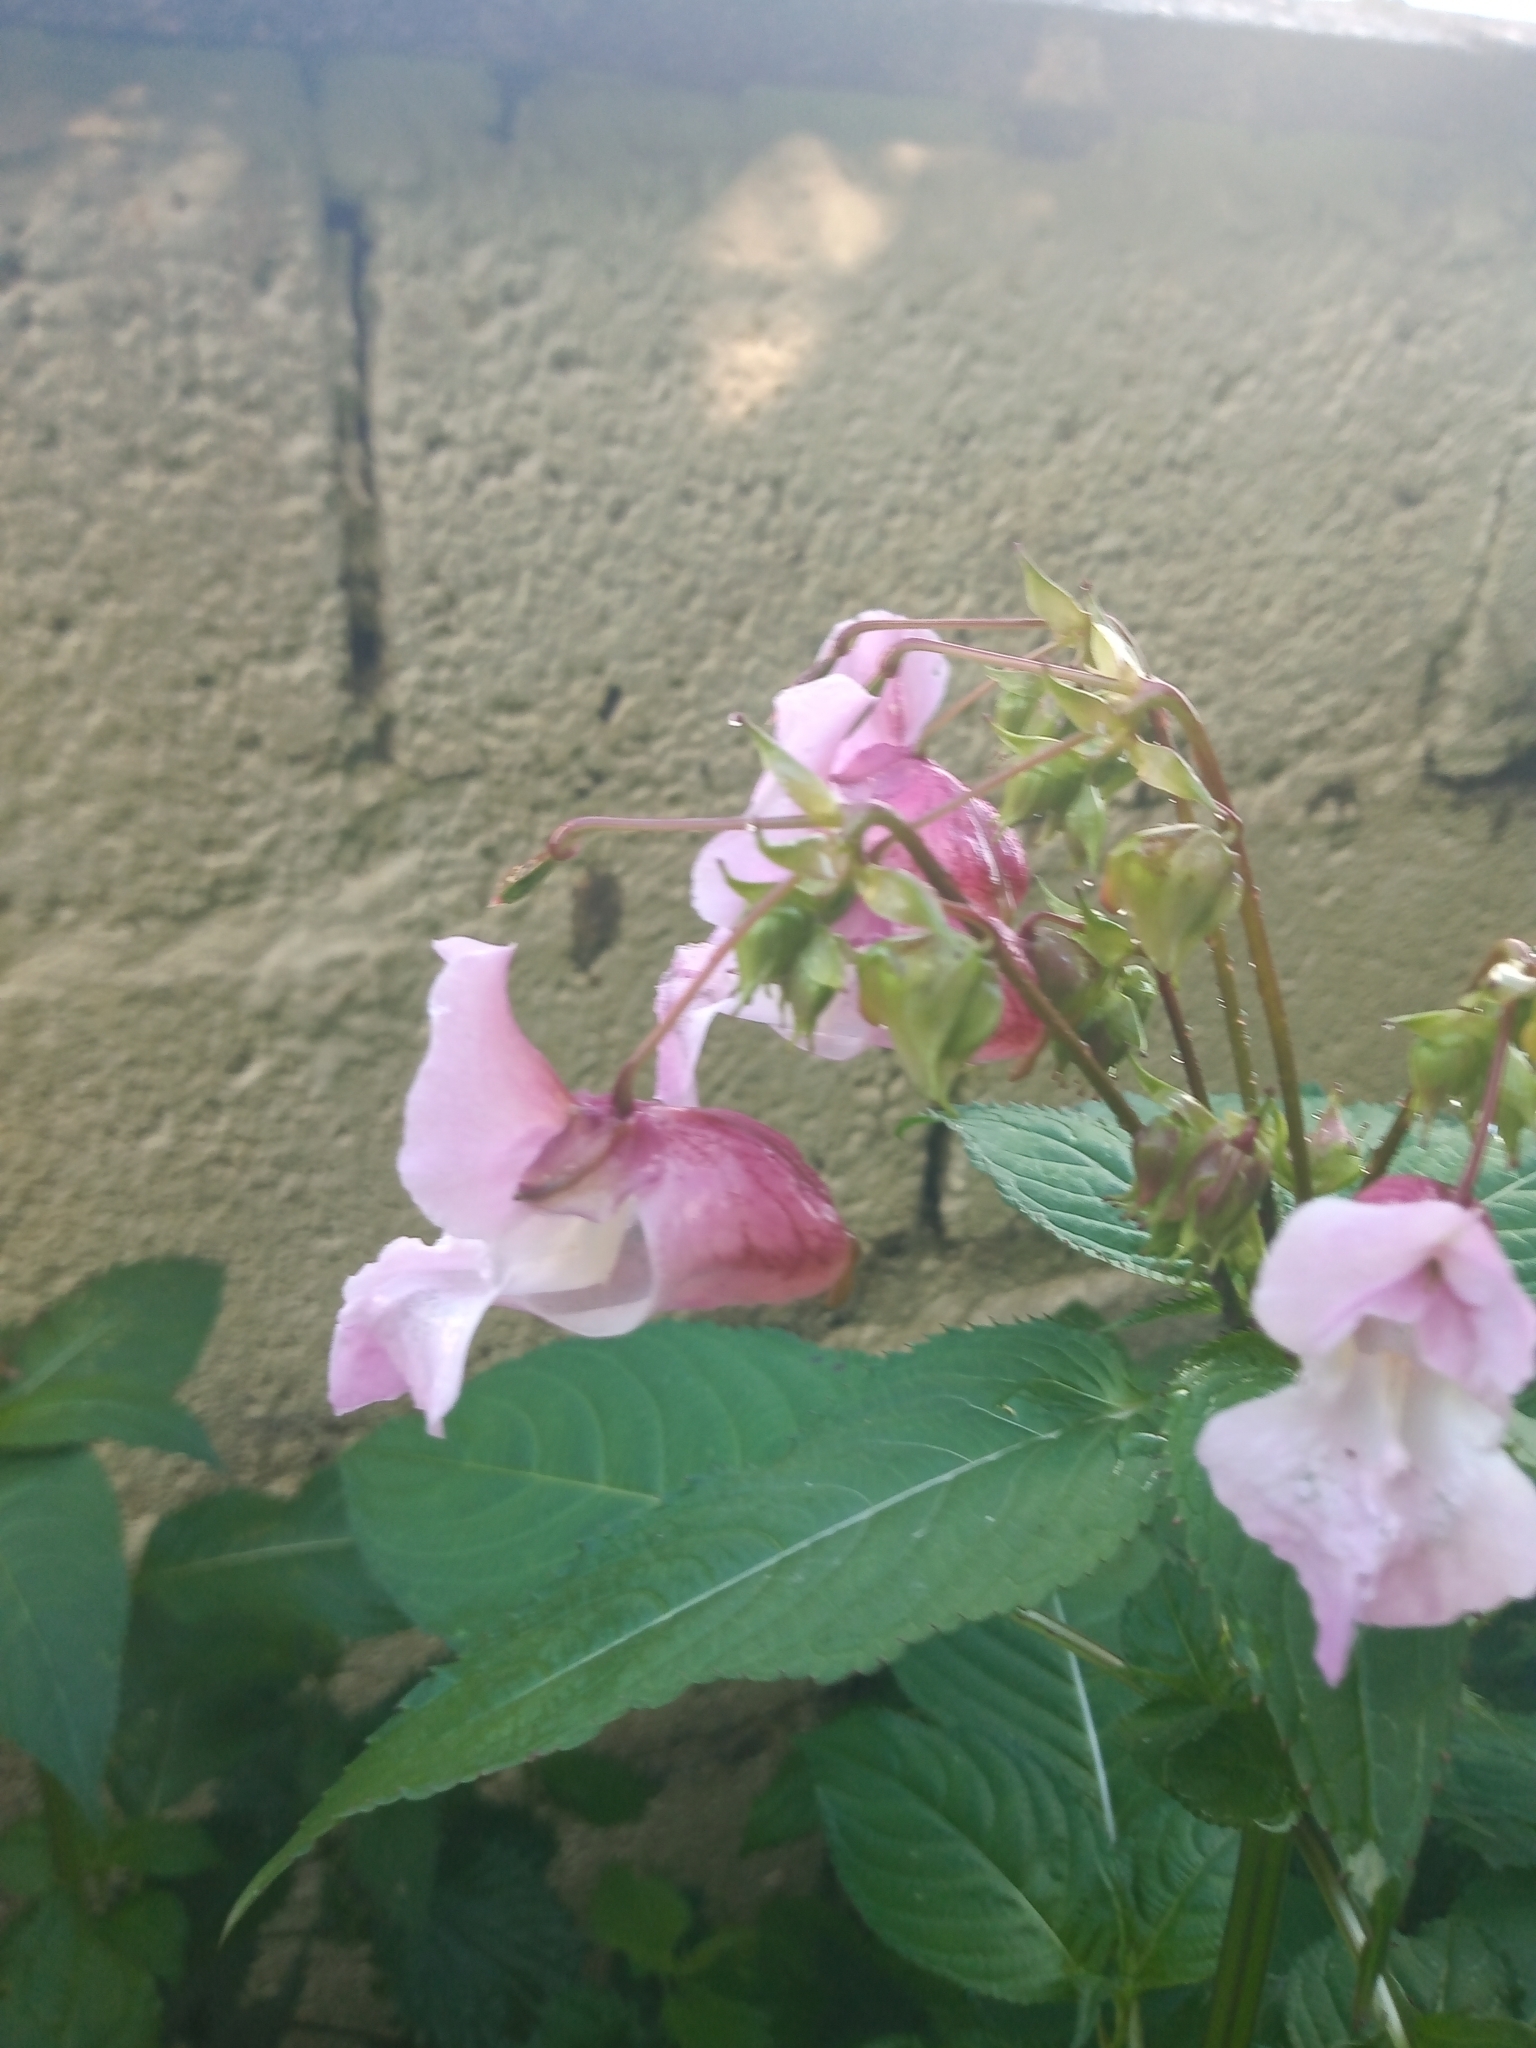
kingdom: Plantae
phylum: Tracheophyta
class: Magnoliopsida
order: Ericales
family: Balsaminaceae
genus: Impatiens
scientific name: Impatiens glandulifera
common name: Himalayan balsam
